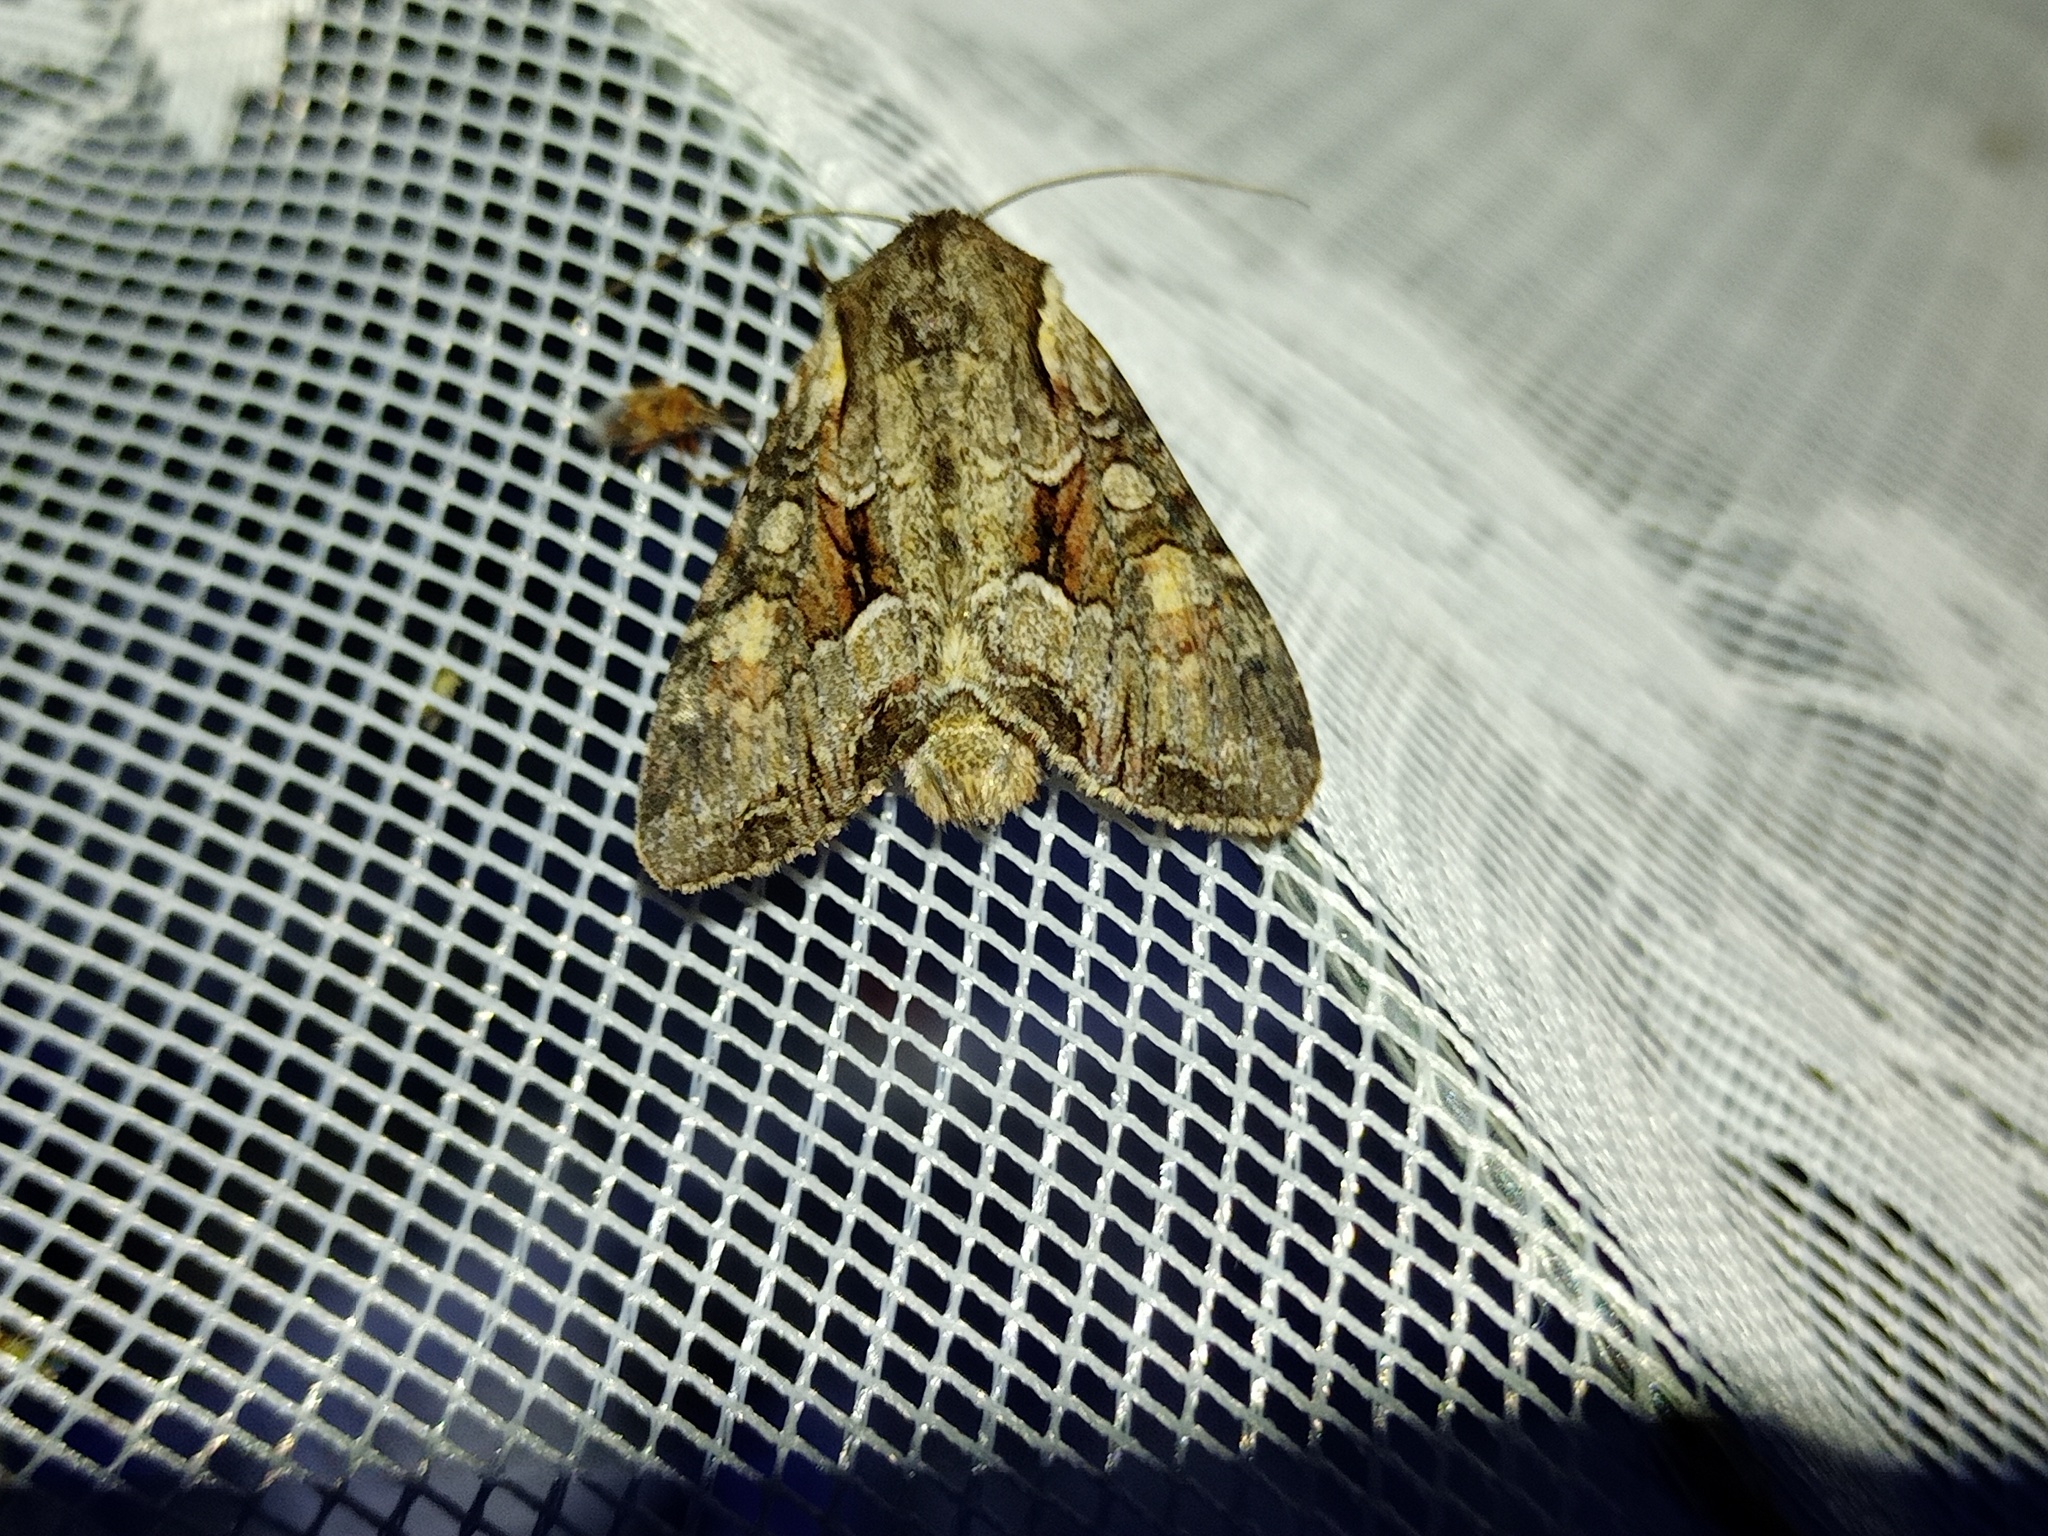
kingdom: Animalia
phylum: Arthropoda
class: Insecta
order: Lepidoptera
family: Noctuidae
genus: Lacanobia
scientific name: Lacanobia w-latinum
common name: Light brocade
